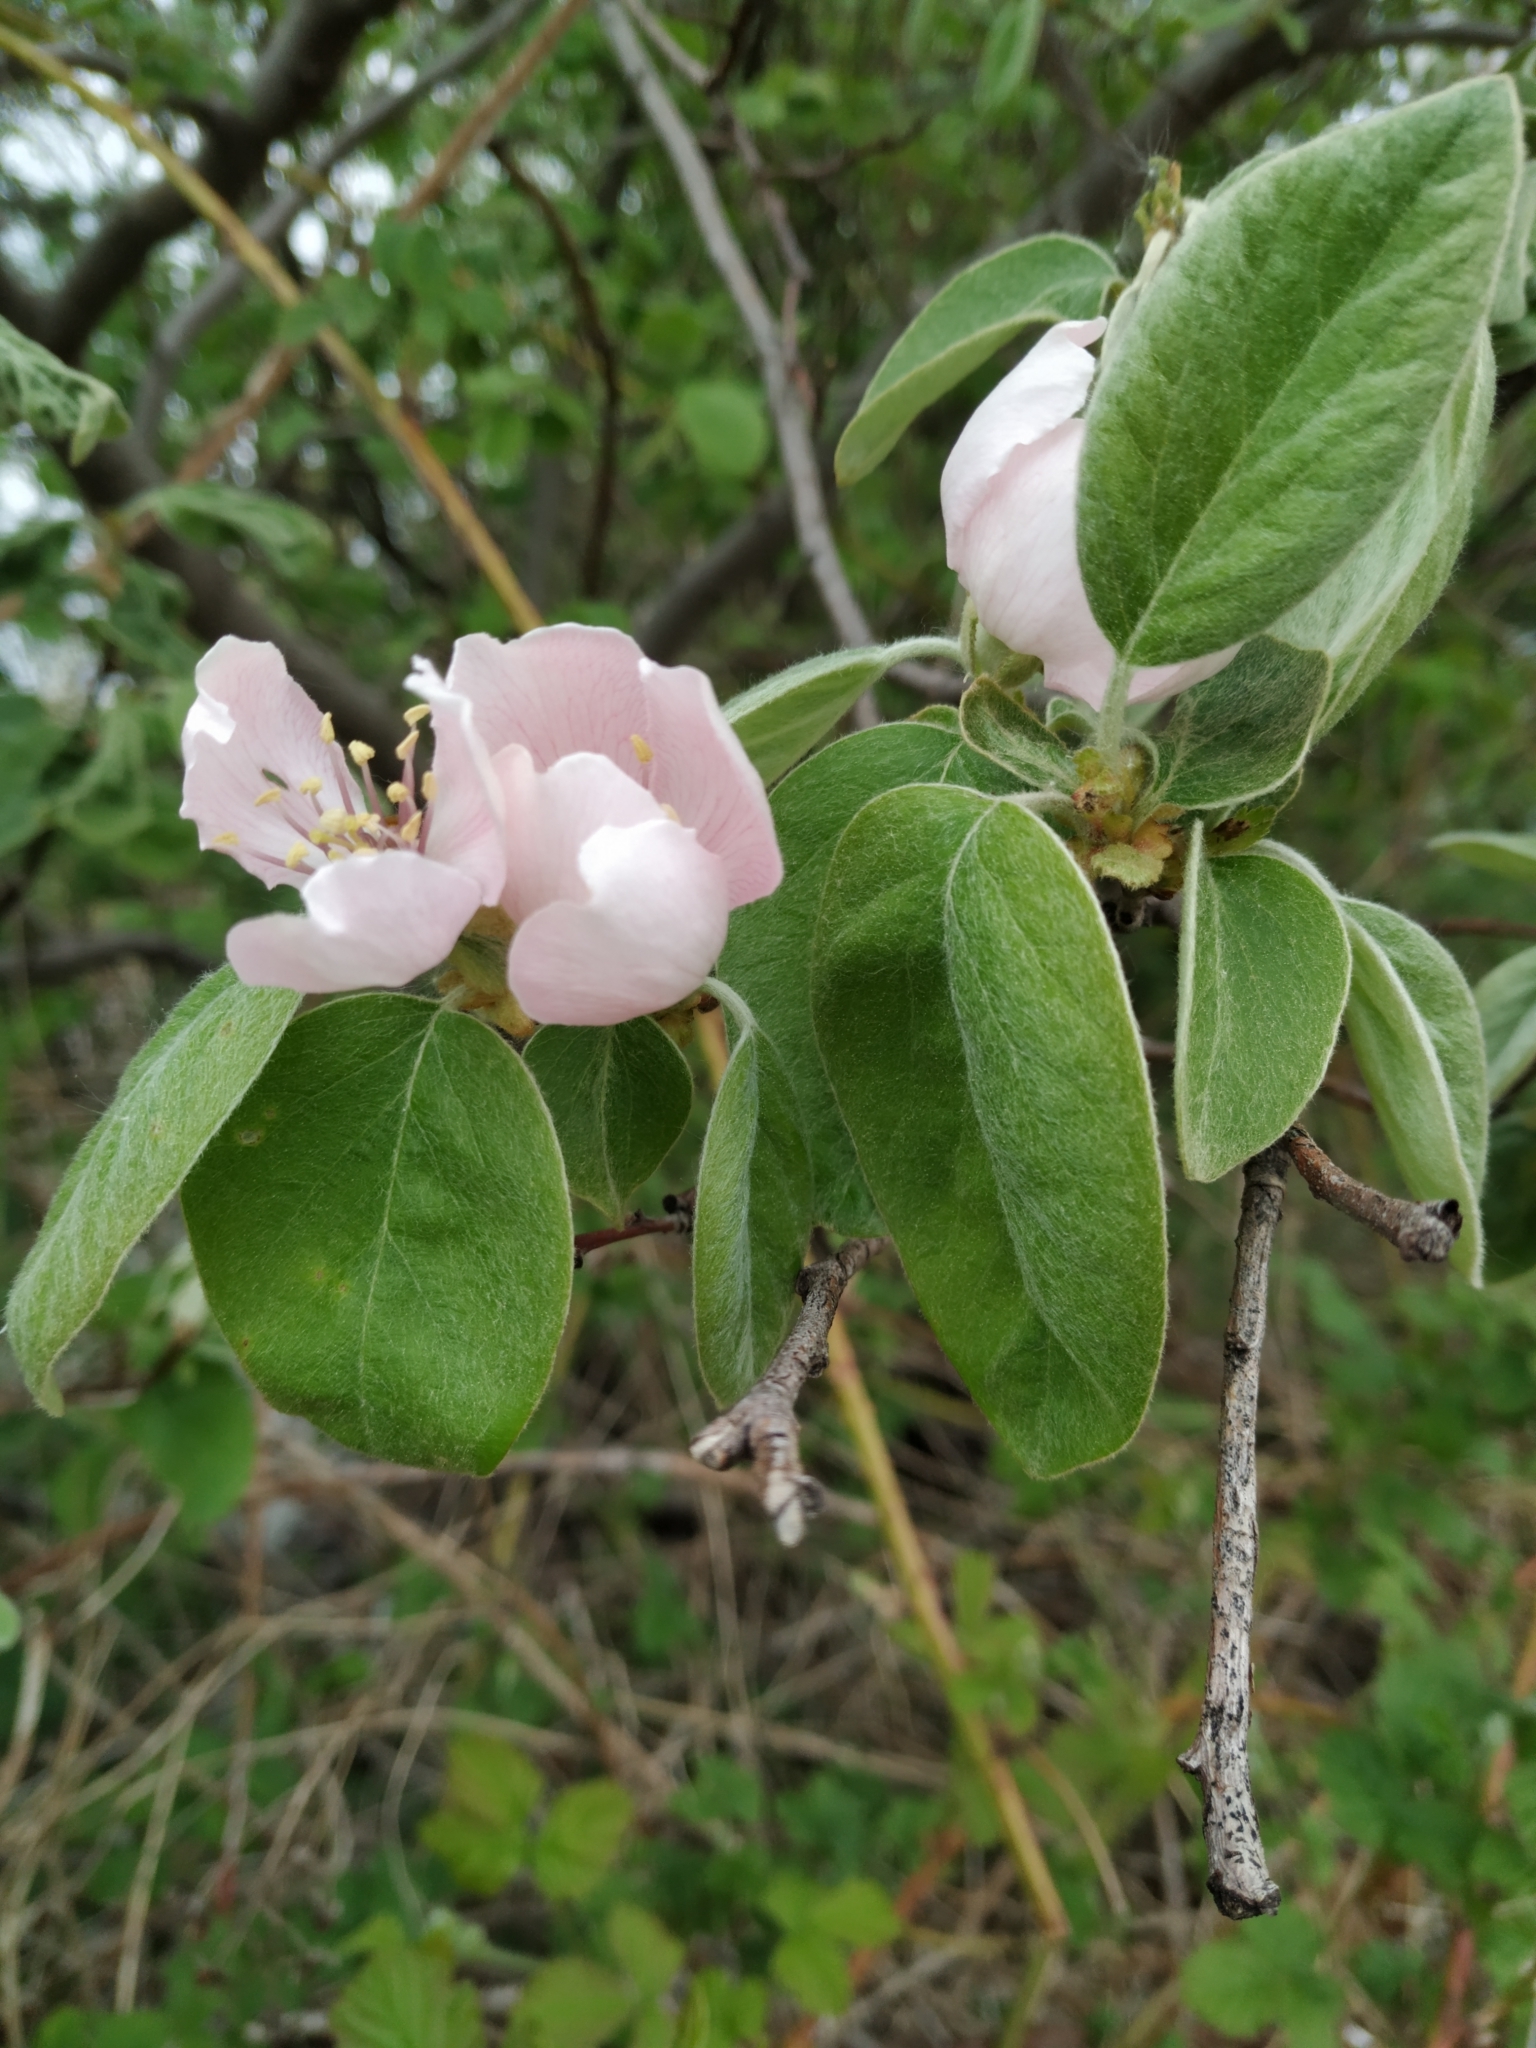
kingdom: Plantae
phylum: Tracheophyta
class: Magnoliopsida
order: Rosales
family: Rosaceae
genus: Cydonia
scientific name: Cydonia oblonga
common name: Quince
